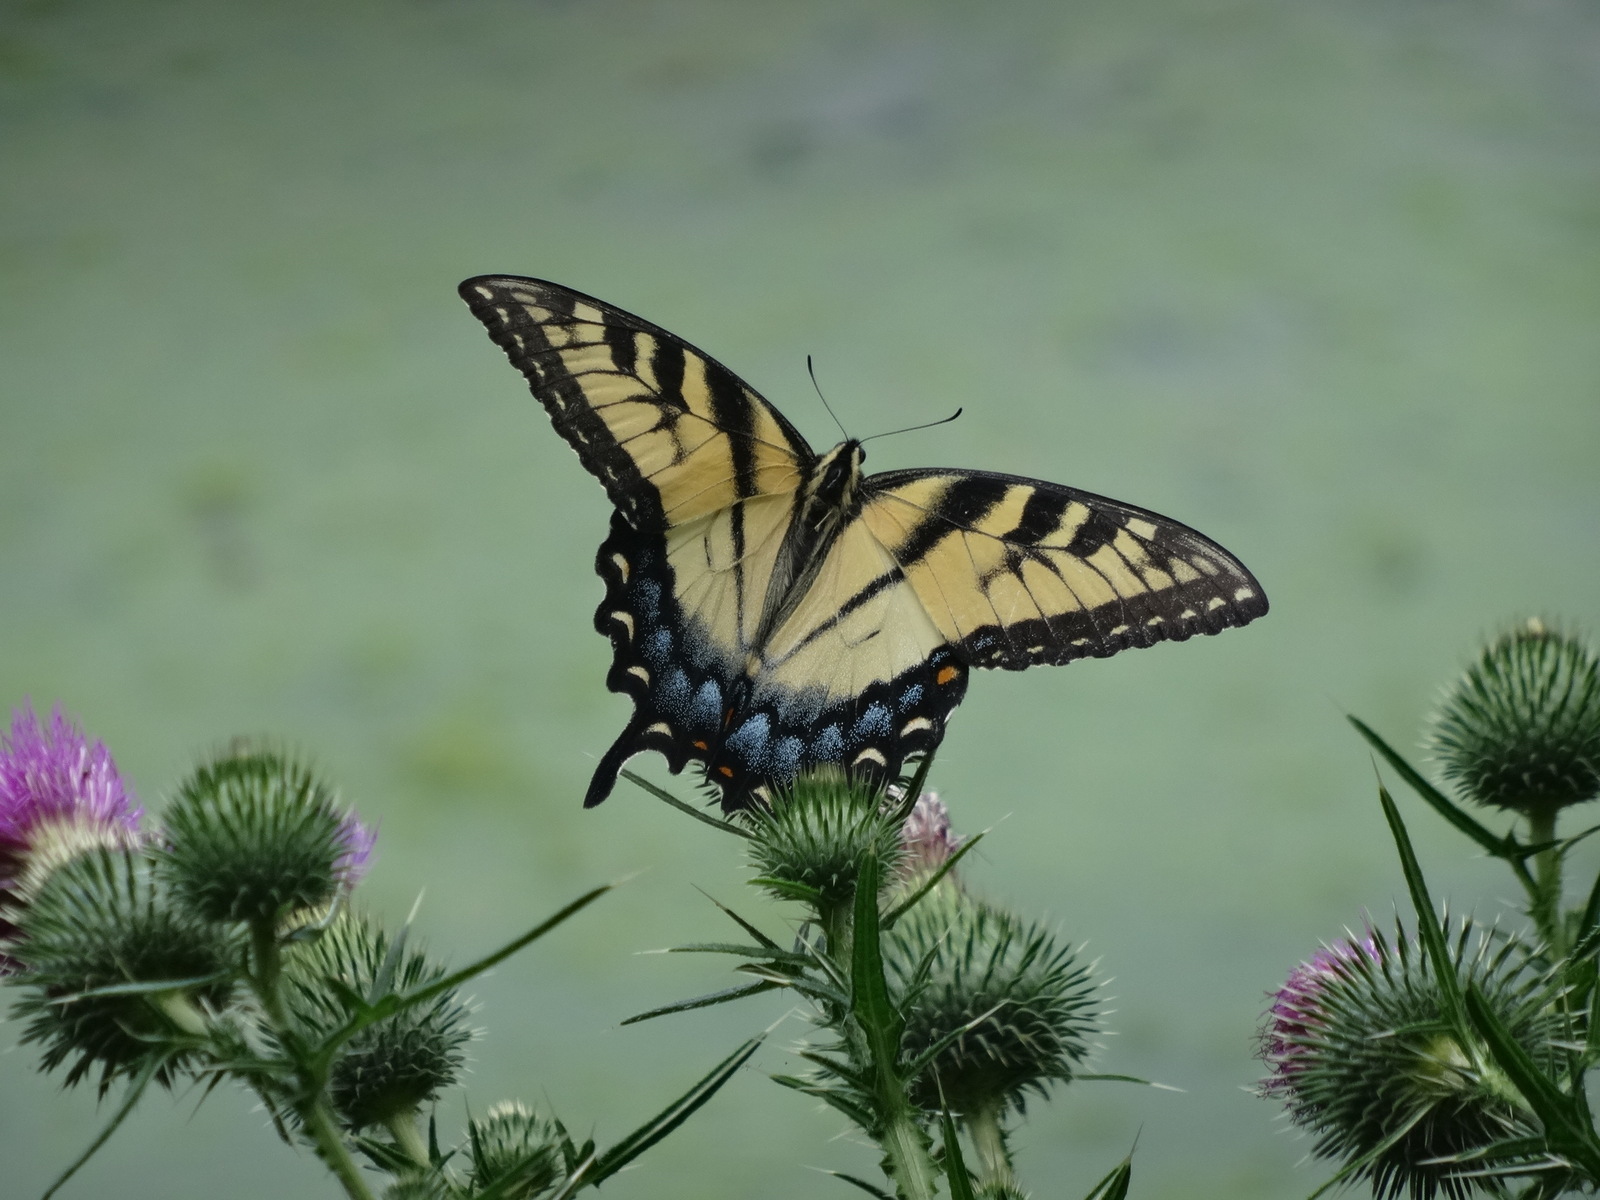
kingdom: Animalia
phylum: Arthropoda
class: Insecta
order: Lepidoptera
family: Papilionidae
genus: Papilio
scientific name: Papilio glaucus
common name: Tiger swallowtail
